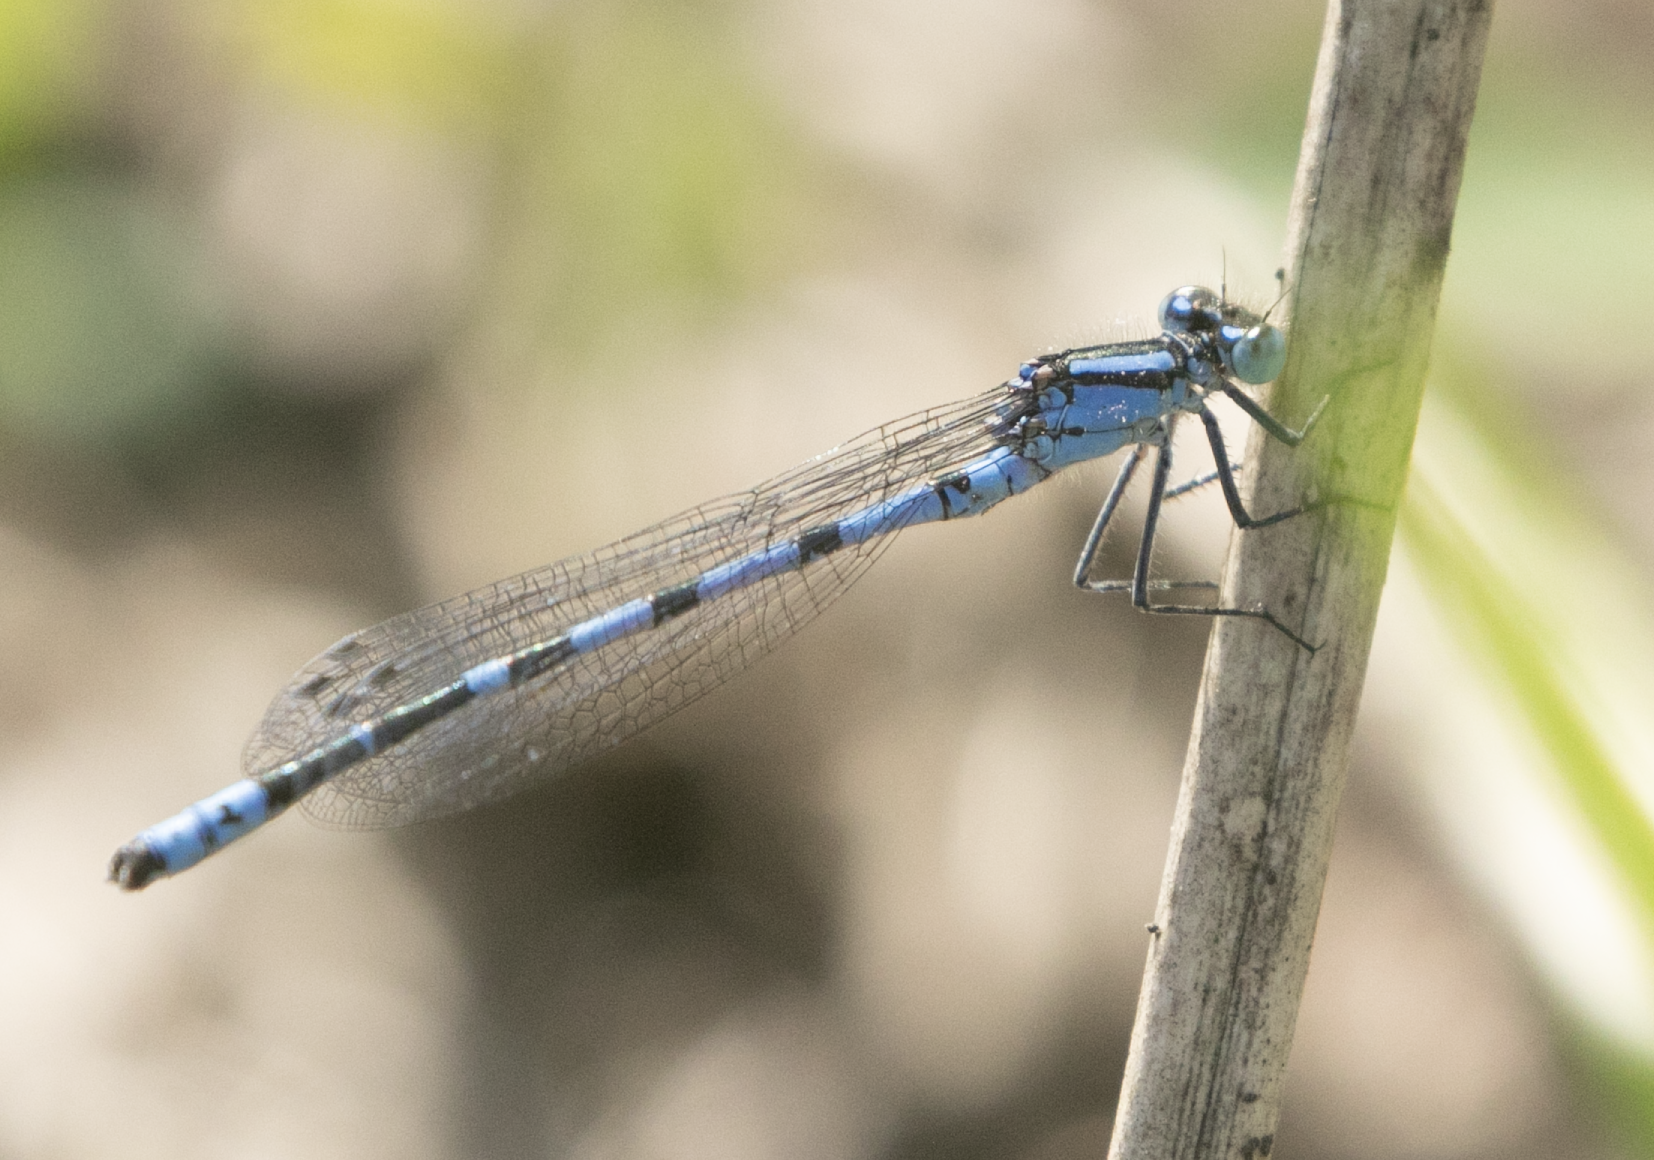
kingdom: Animalia
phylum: Arthropoda
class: Insecta
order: Odonata
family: Coenagrionidae
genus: Enallagma
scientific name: Enallagma cyathigerum
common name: Common blue damselfly
